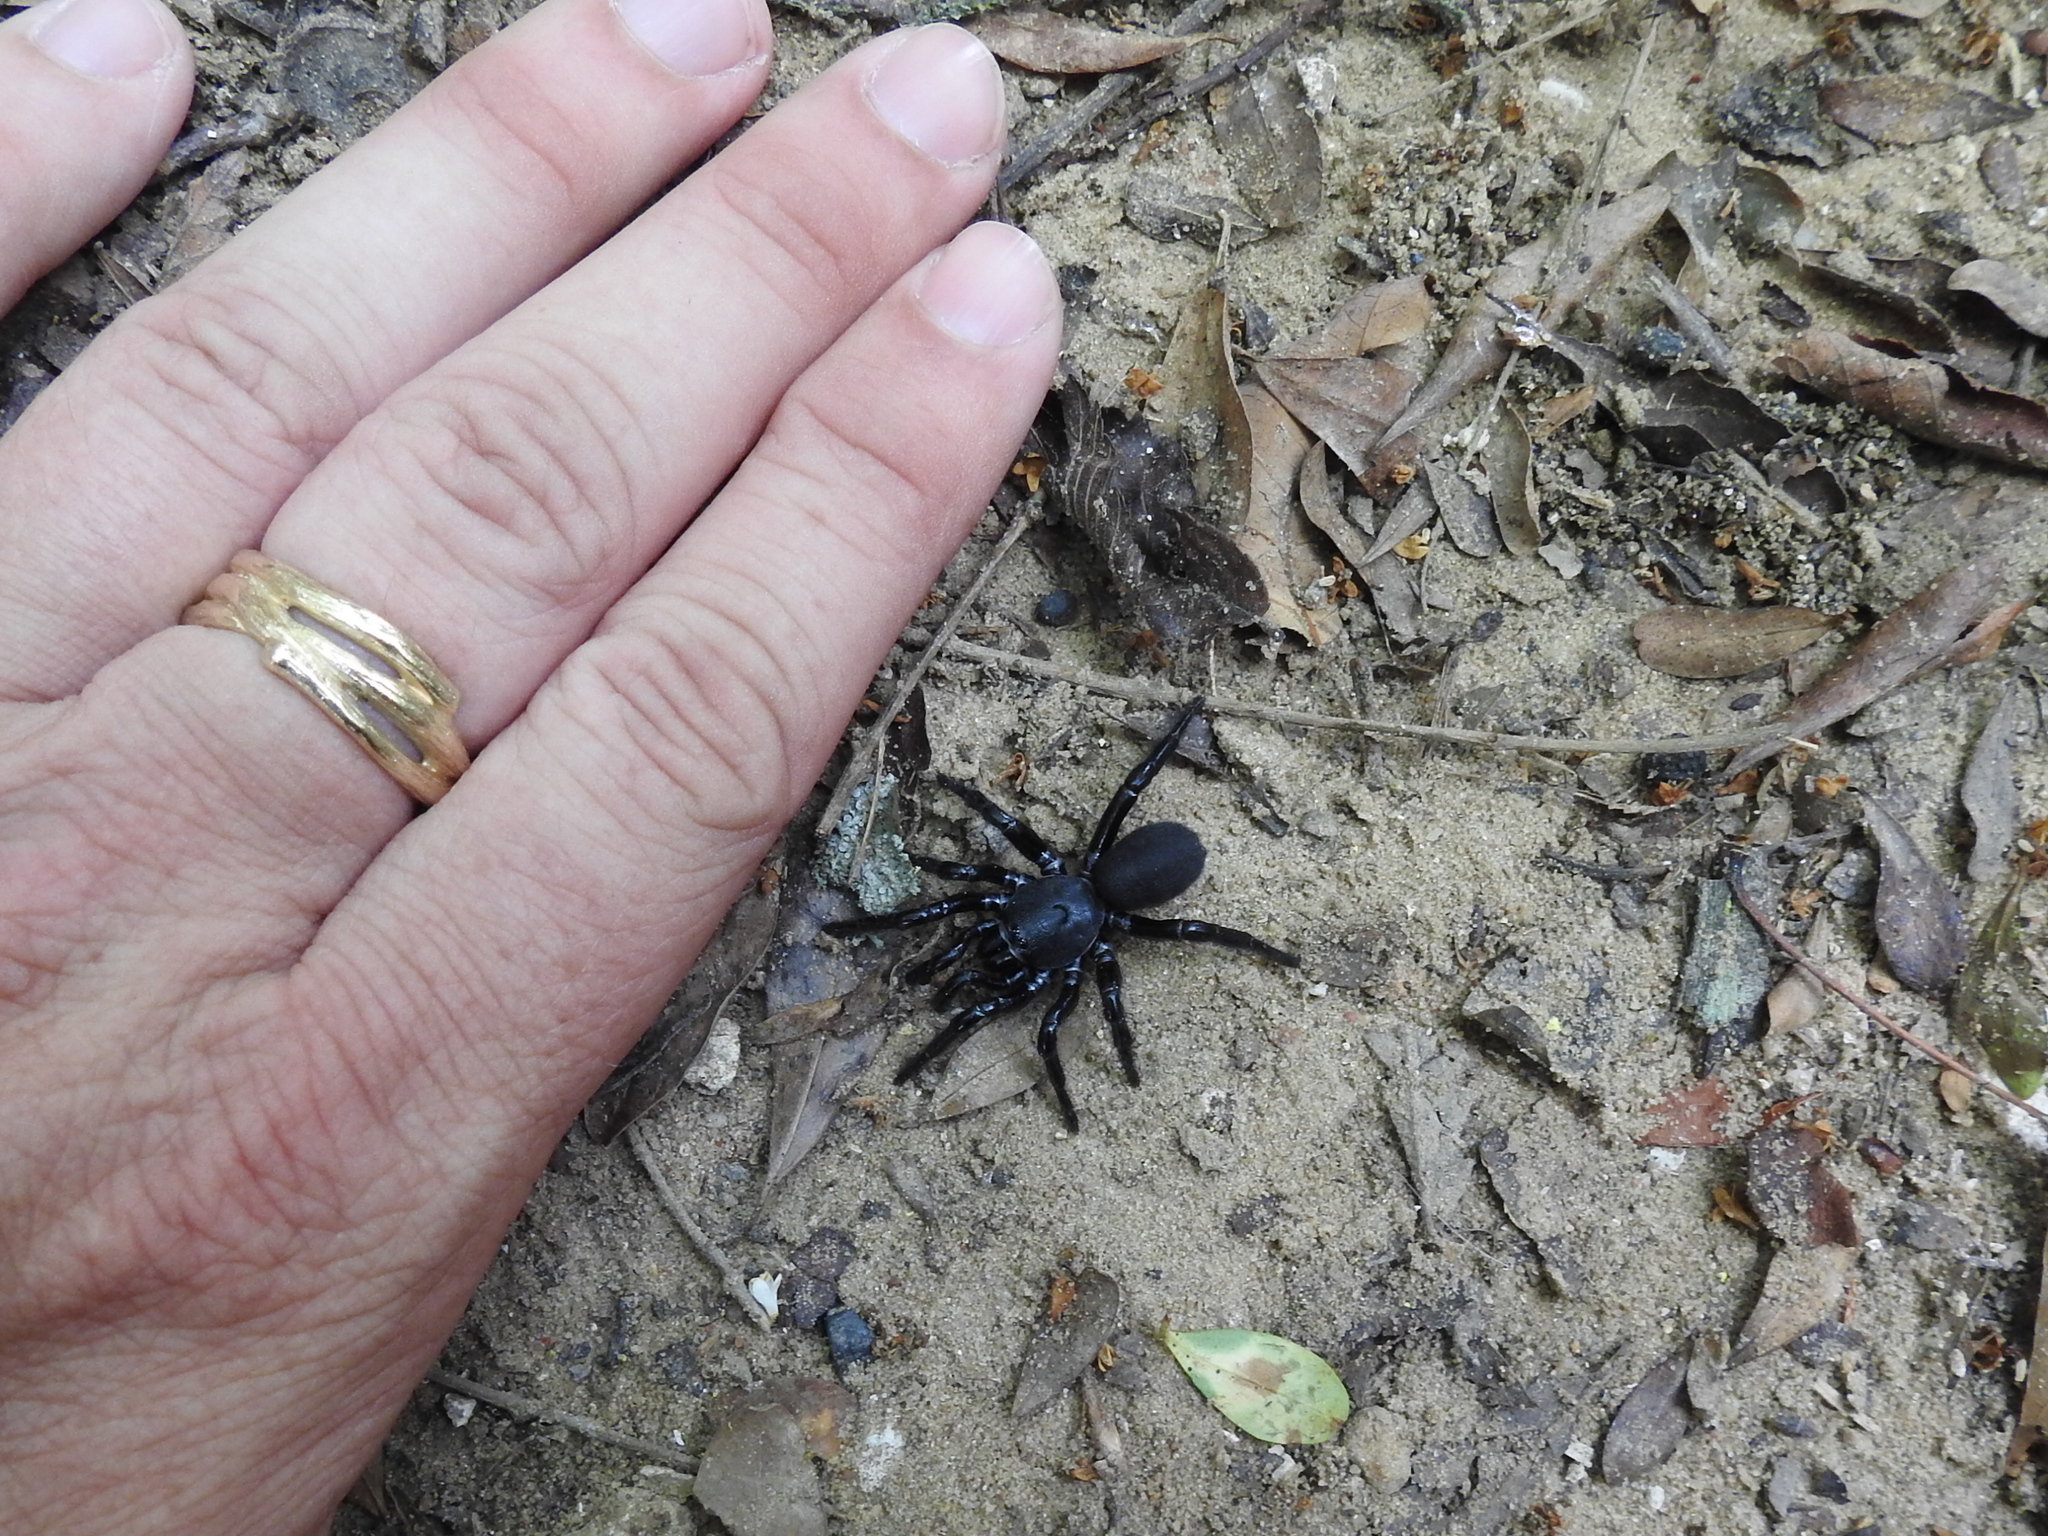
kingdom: Animalia
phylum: Arthropoda
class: Arachnida
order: Araneae
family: Halonoproctidae
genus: Ummidia
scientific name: Ummidia audouini
